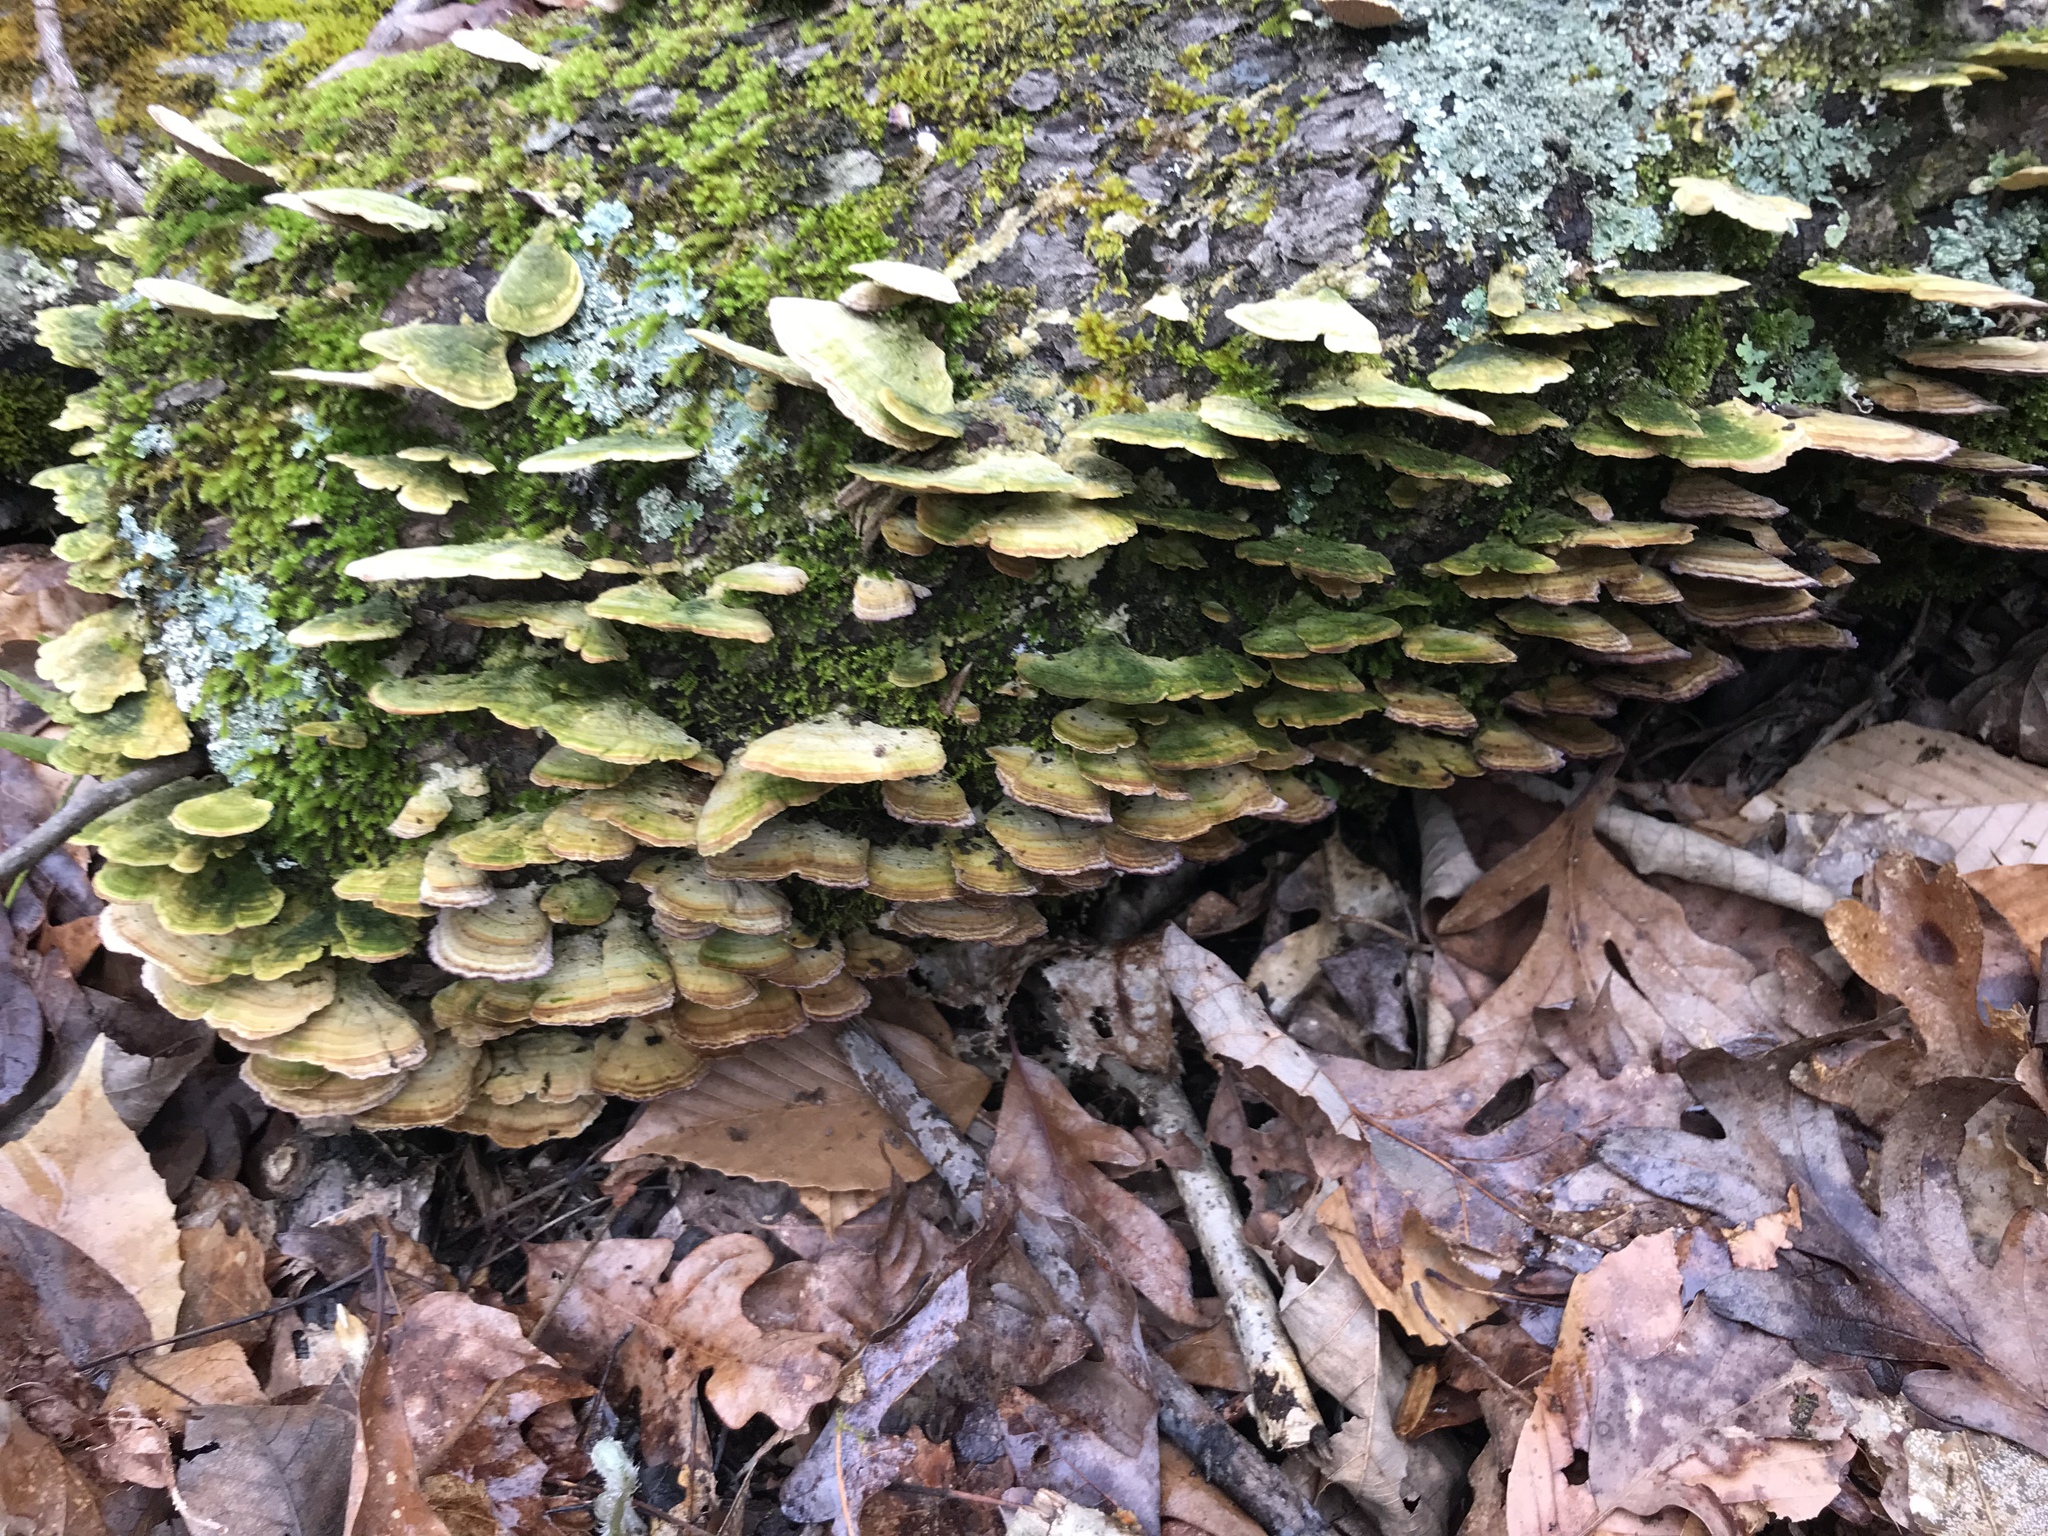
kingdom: Fungi
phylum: Basidiomycota
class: Agaricomycetes
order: Hymenochaetales
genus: Trichaptum
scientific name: Trichaptum biforme
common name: Violet-toothed polypore
